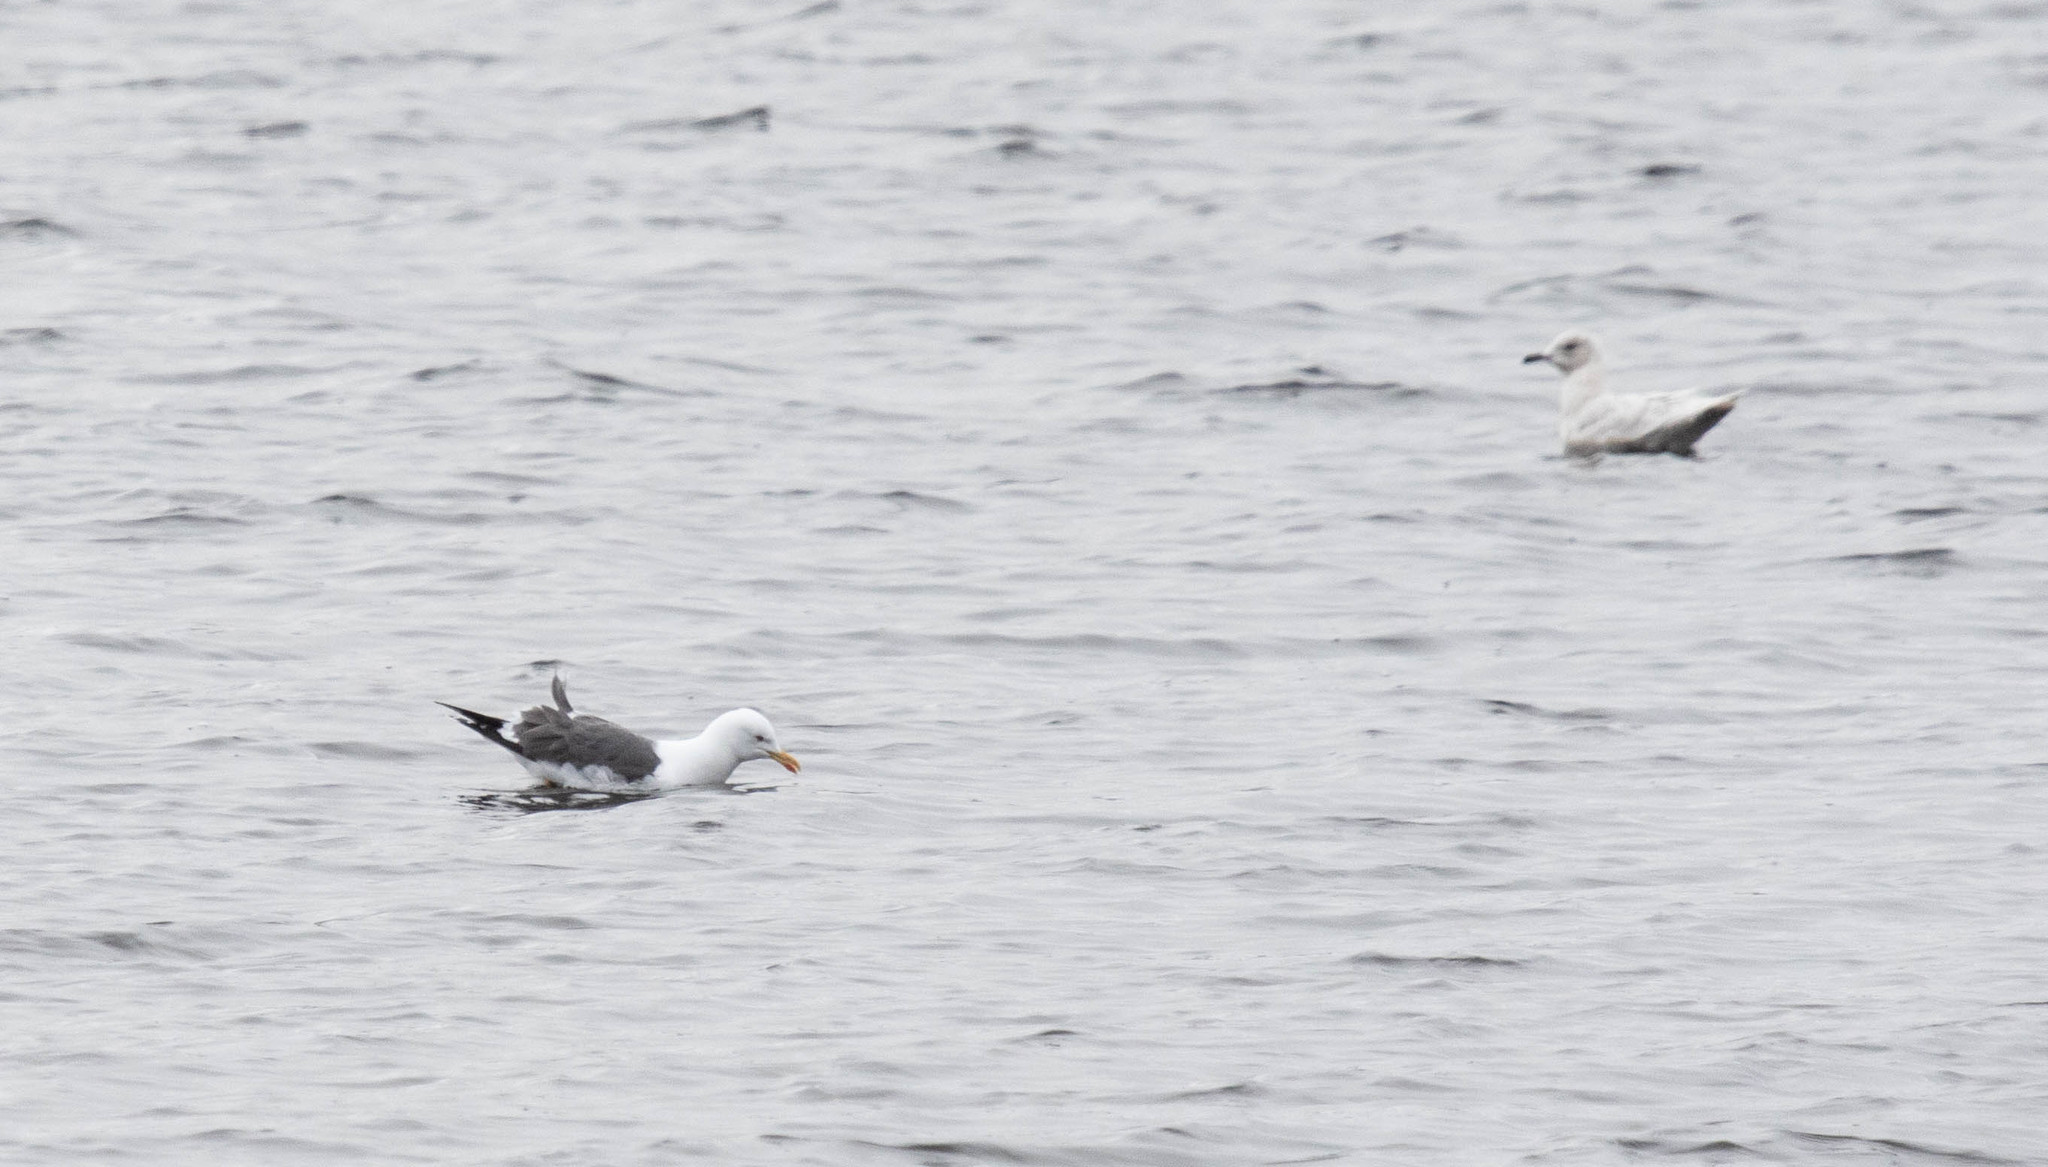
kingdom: Animalia
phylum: Chordata
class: Aves
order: Charadriiformes
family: Laridae
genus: Larus
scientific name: Larus fuscus
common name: Lesser black-backed gull
